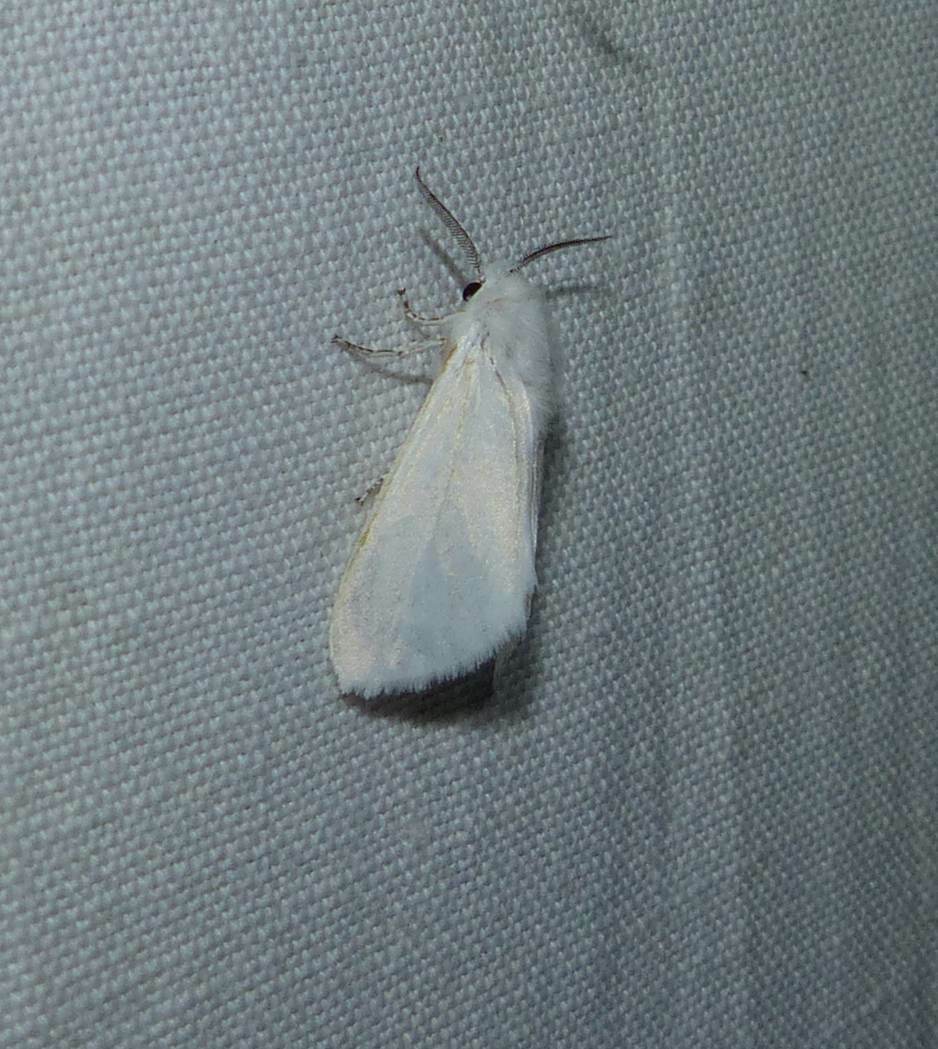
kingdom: Animalia
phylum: Arthropoda
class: Insecta
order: Lepidoptera
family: Erebidae
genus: Hyphantria
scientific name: Hyphantria cunea
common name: American white moth
